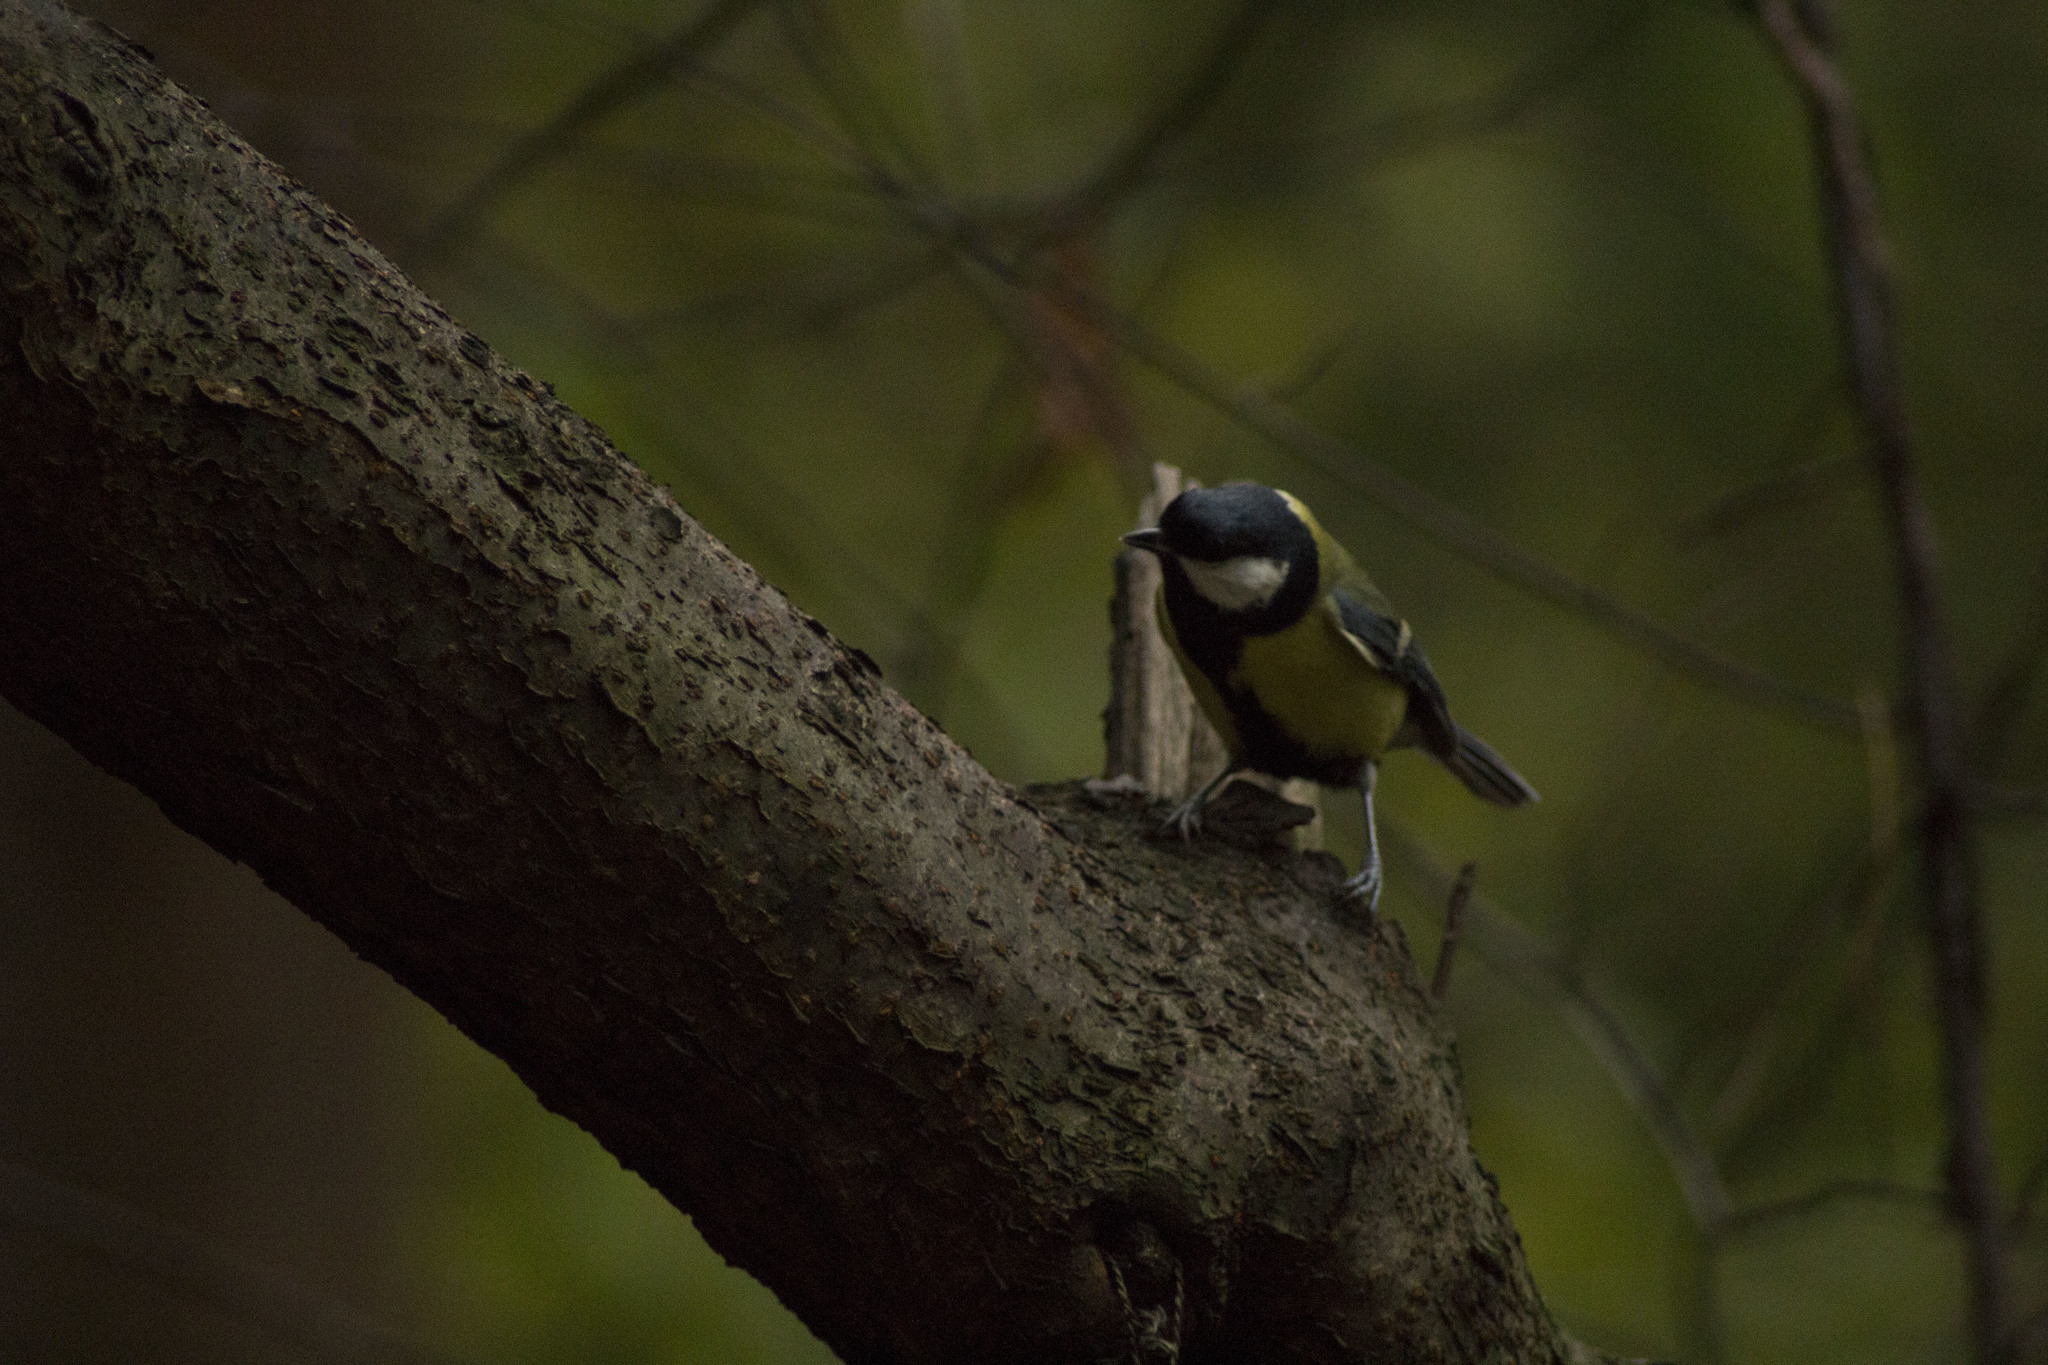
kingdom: Animalia
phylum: Chordata
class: Aves
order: Passeriformes
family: Paridae
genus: Parus
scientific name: Parus major
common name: Great tit
